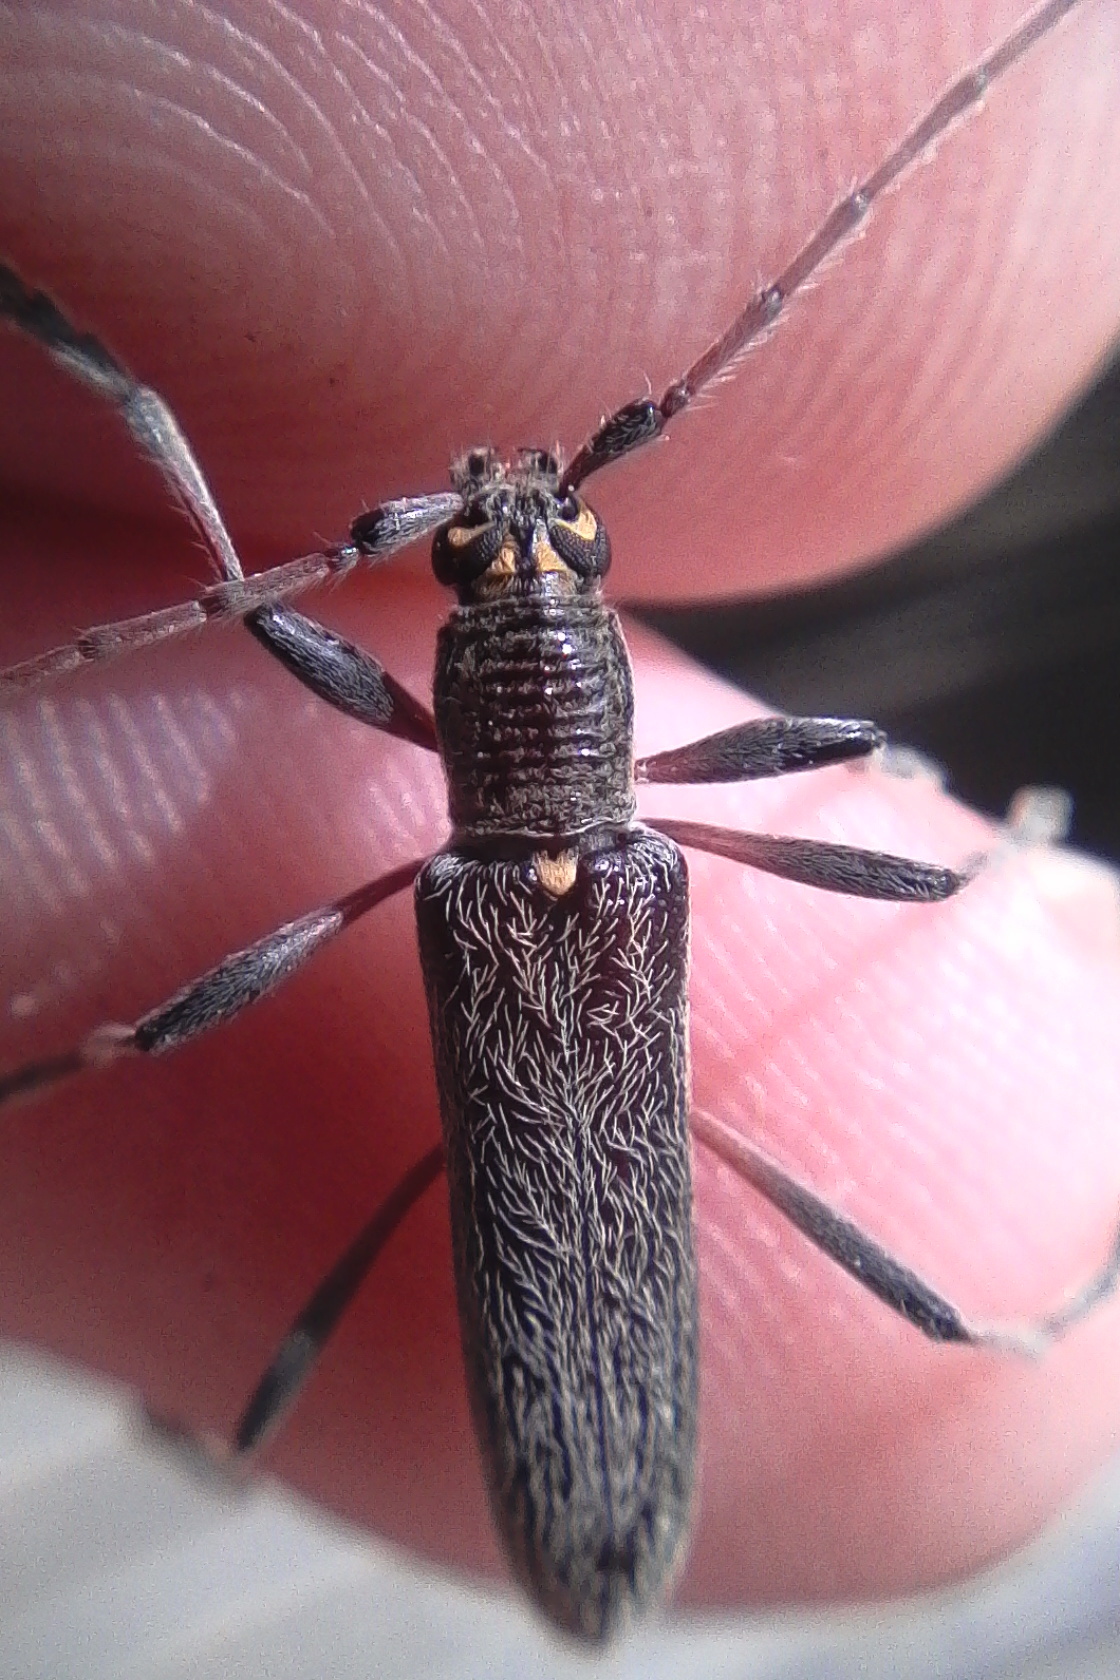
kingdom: Animalia
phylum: Arthropoda
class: Insecta
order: Coleoptera
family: Cerambycidae
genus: Oemona
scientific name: Oemona hirta
